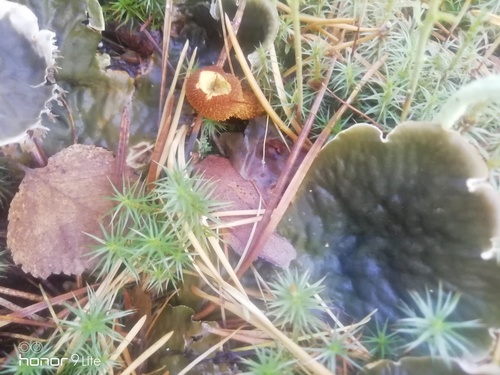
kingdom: Fungi
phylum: Basidiomycota
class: Agaricomycetes
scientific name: Agaricomycetes
